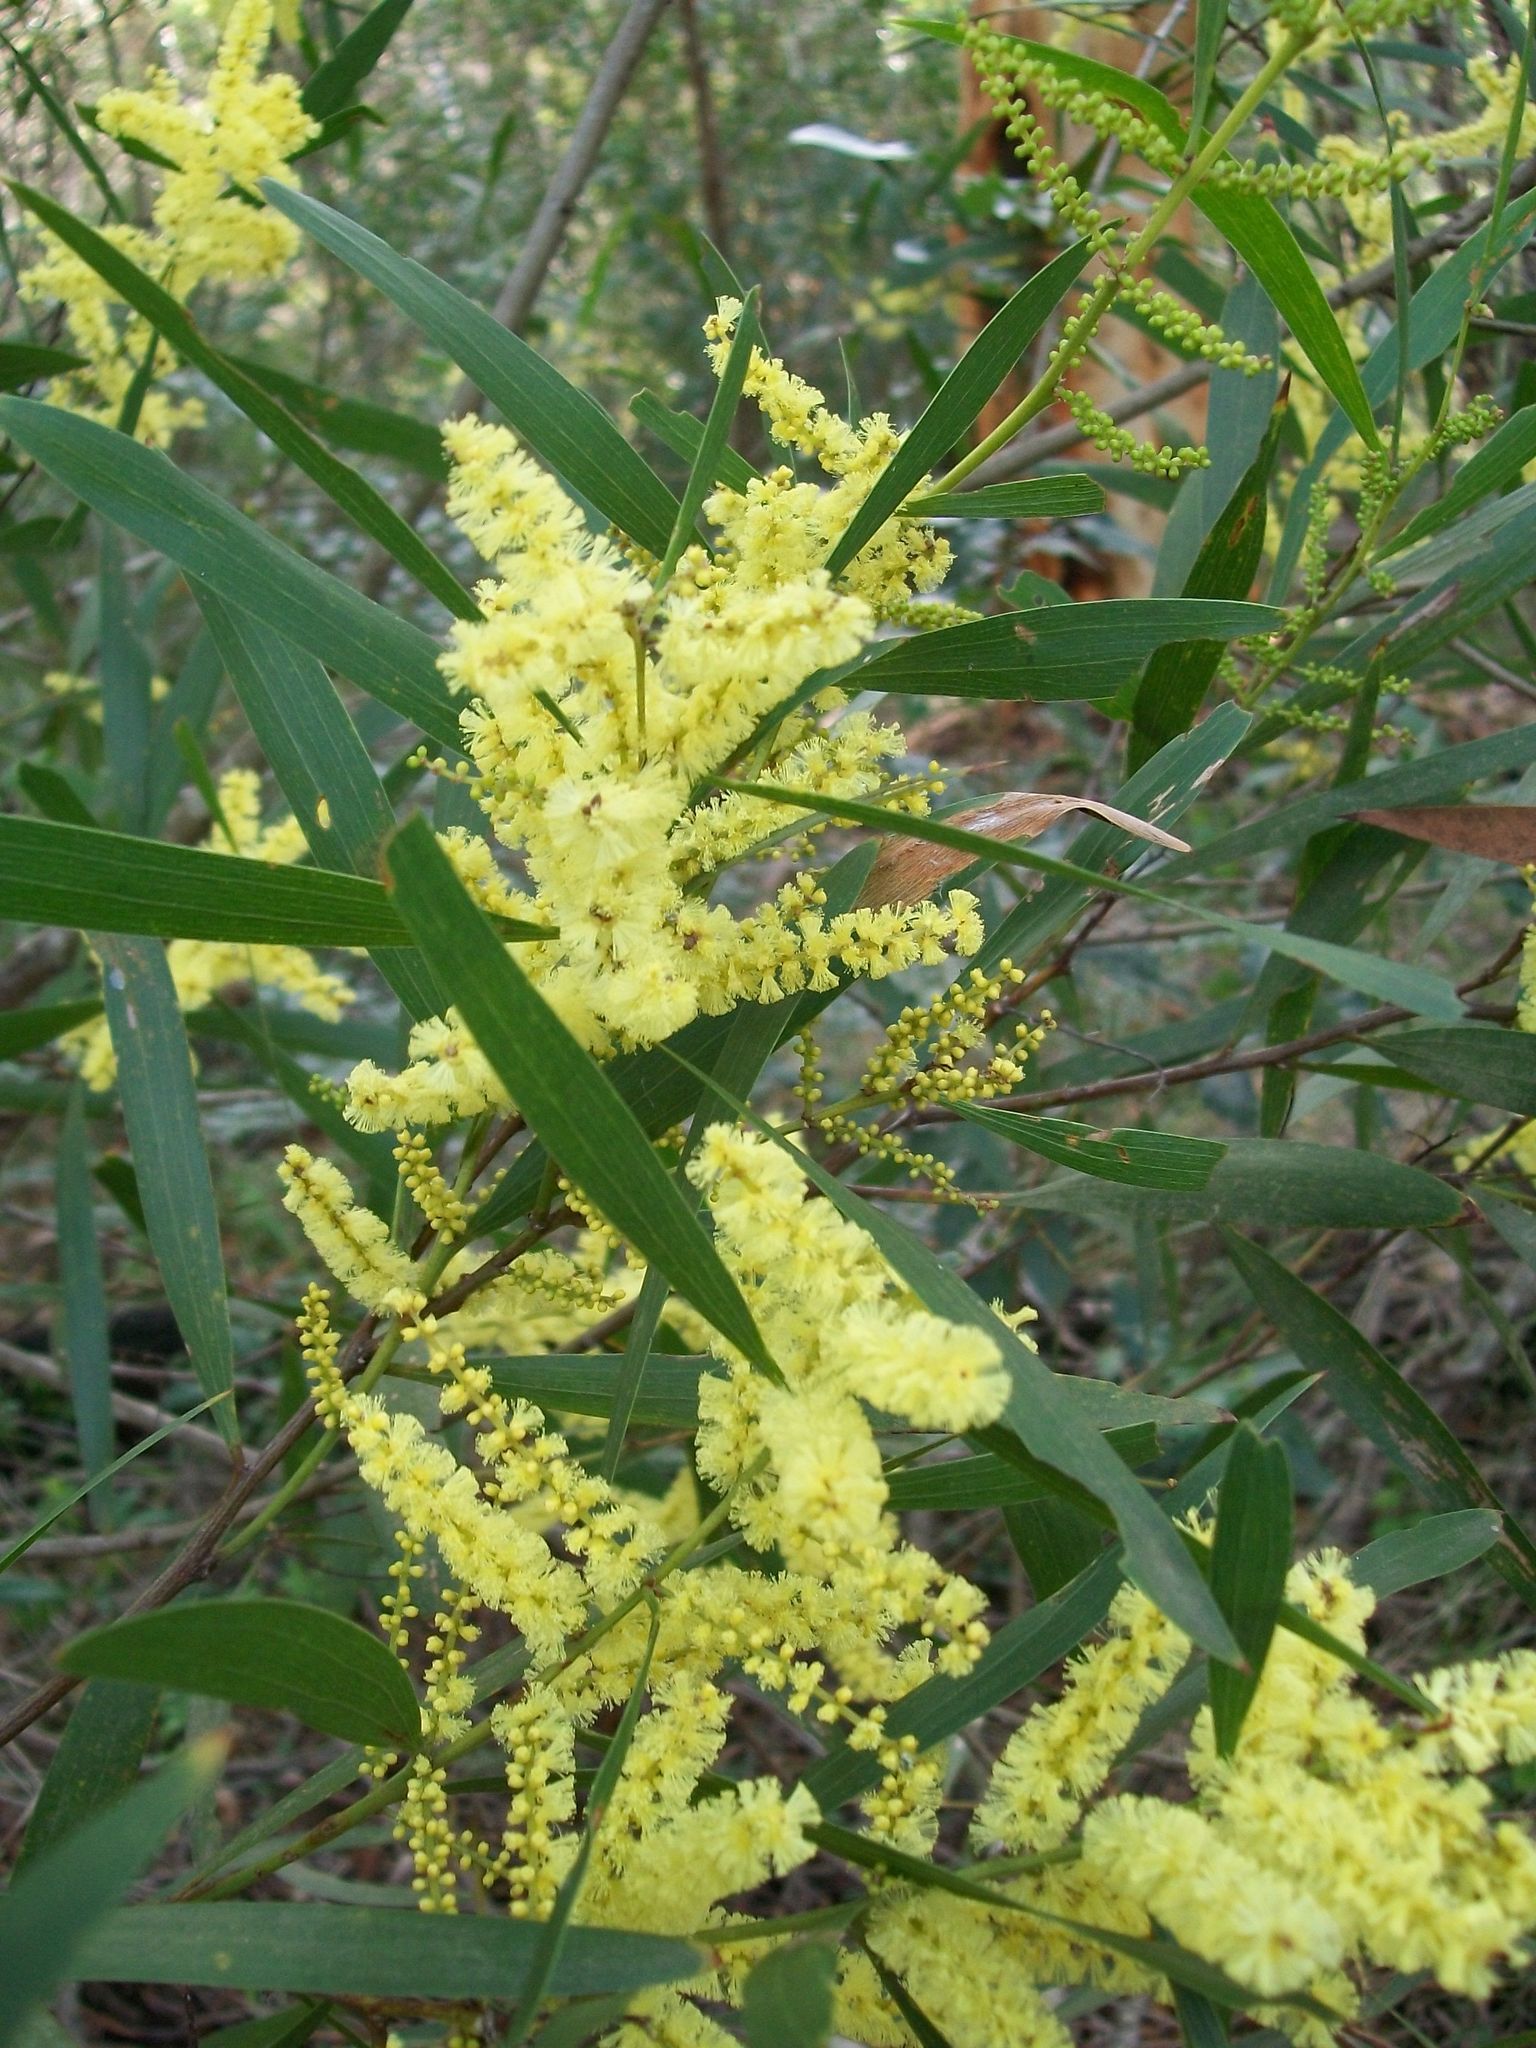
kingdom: Plantae
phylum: Tracheophyta
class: Magnoliopsida
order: Fabales
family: Fabaceae
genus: Acacia
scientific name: Acacia longifolia
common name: Sydney golden wattle
